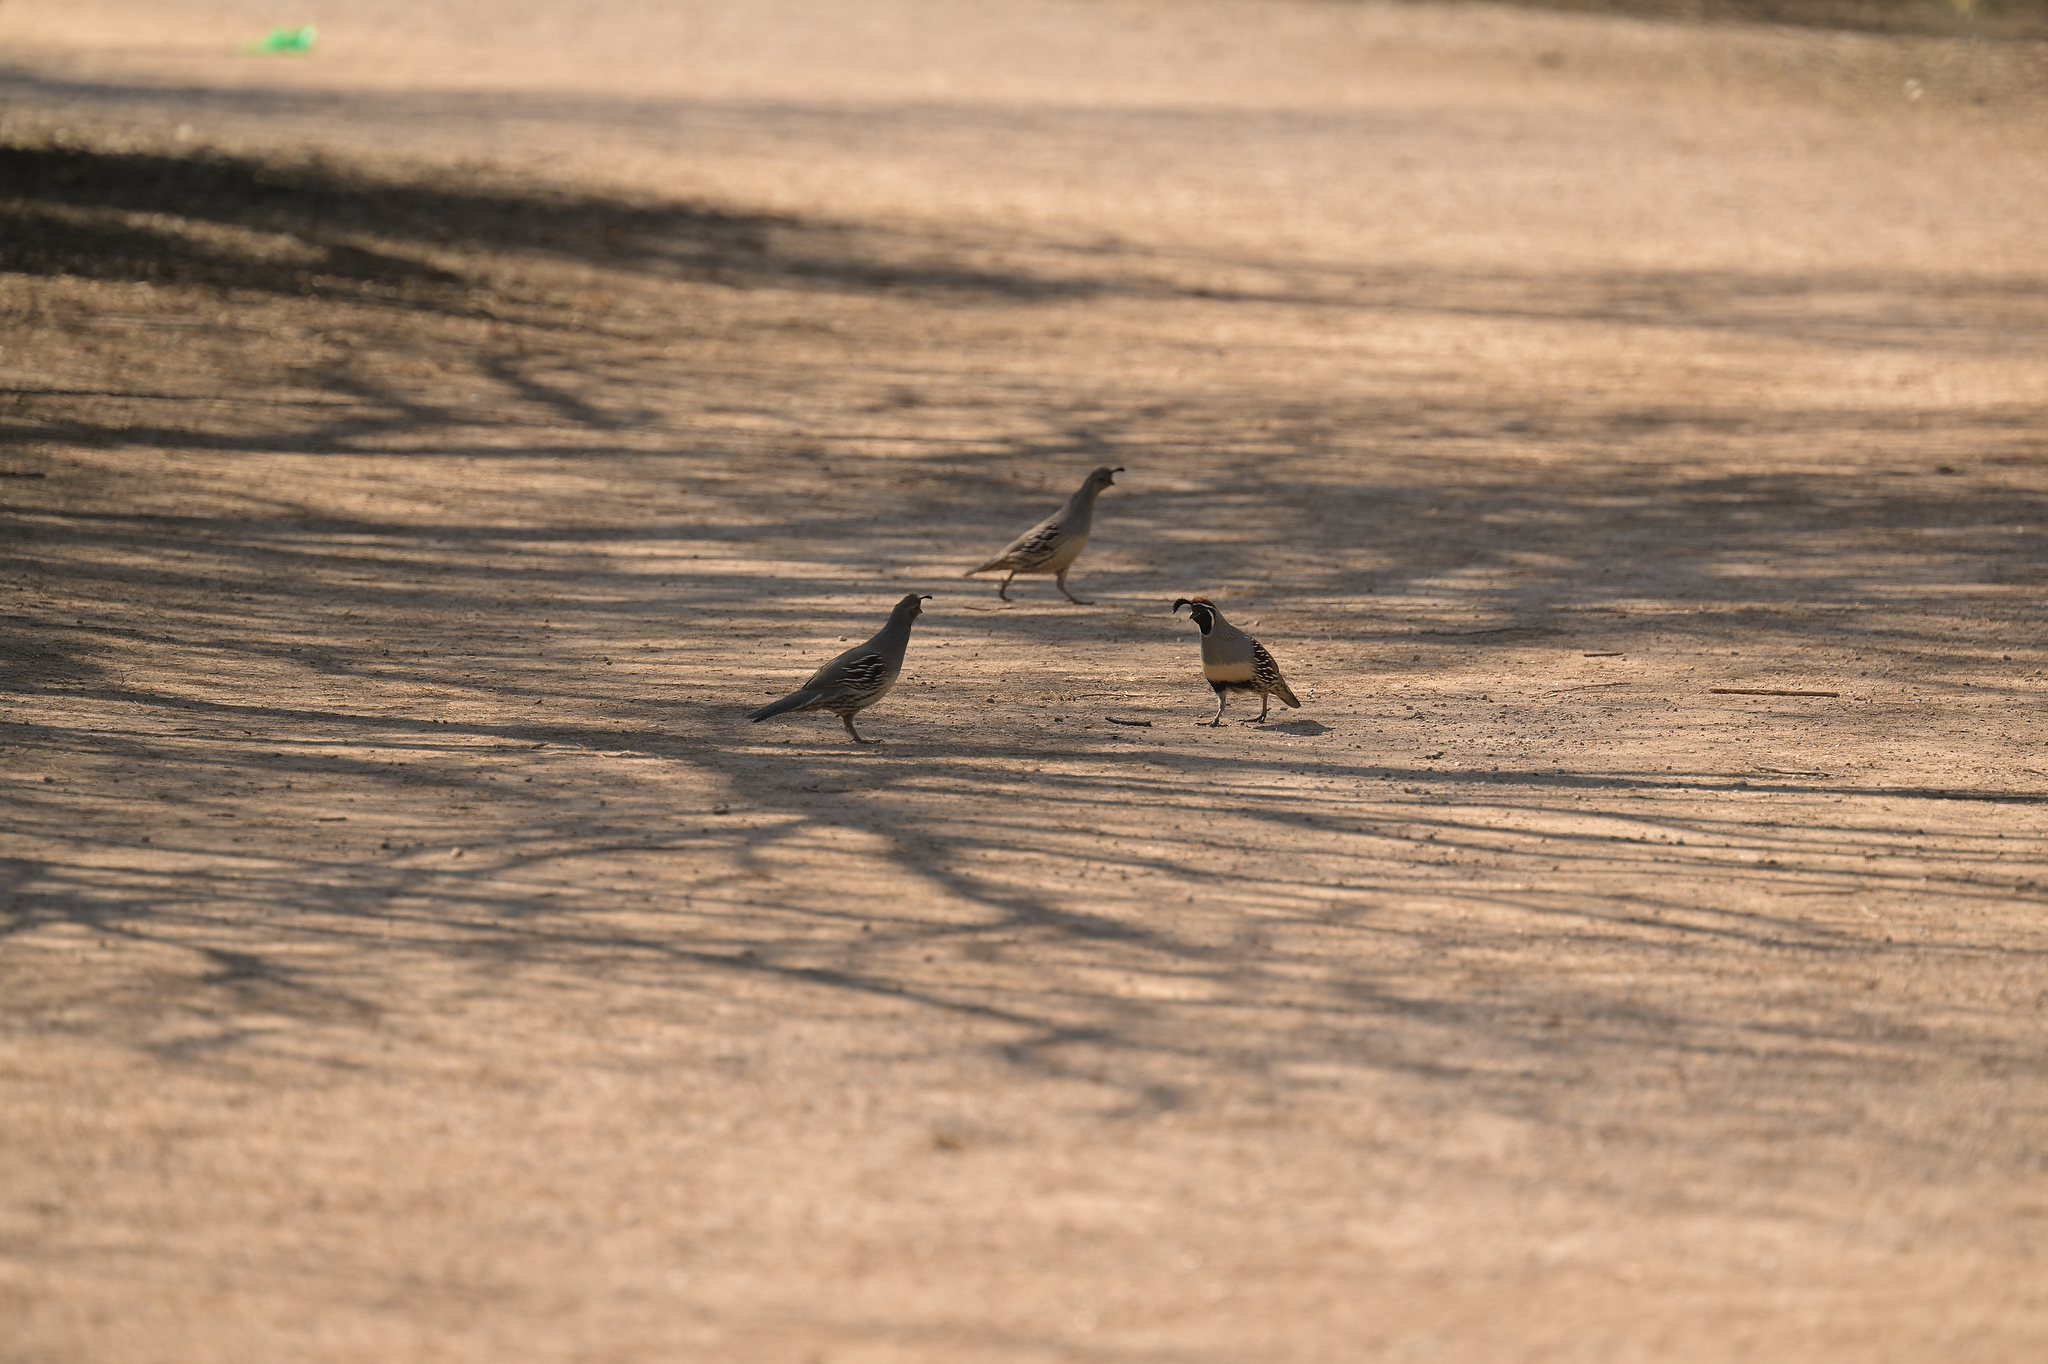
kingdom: Animalia
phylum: Chordata
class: Aves
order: Galliformes
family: Odontophoridae
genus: Callipepla
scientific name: Callipepla gambelii
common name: Gambel's quail
